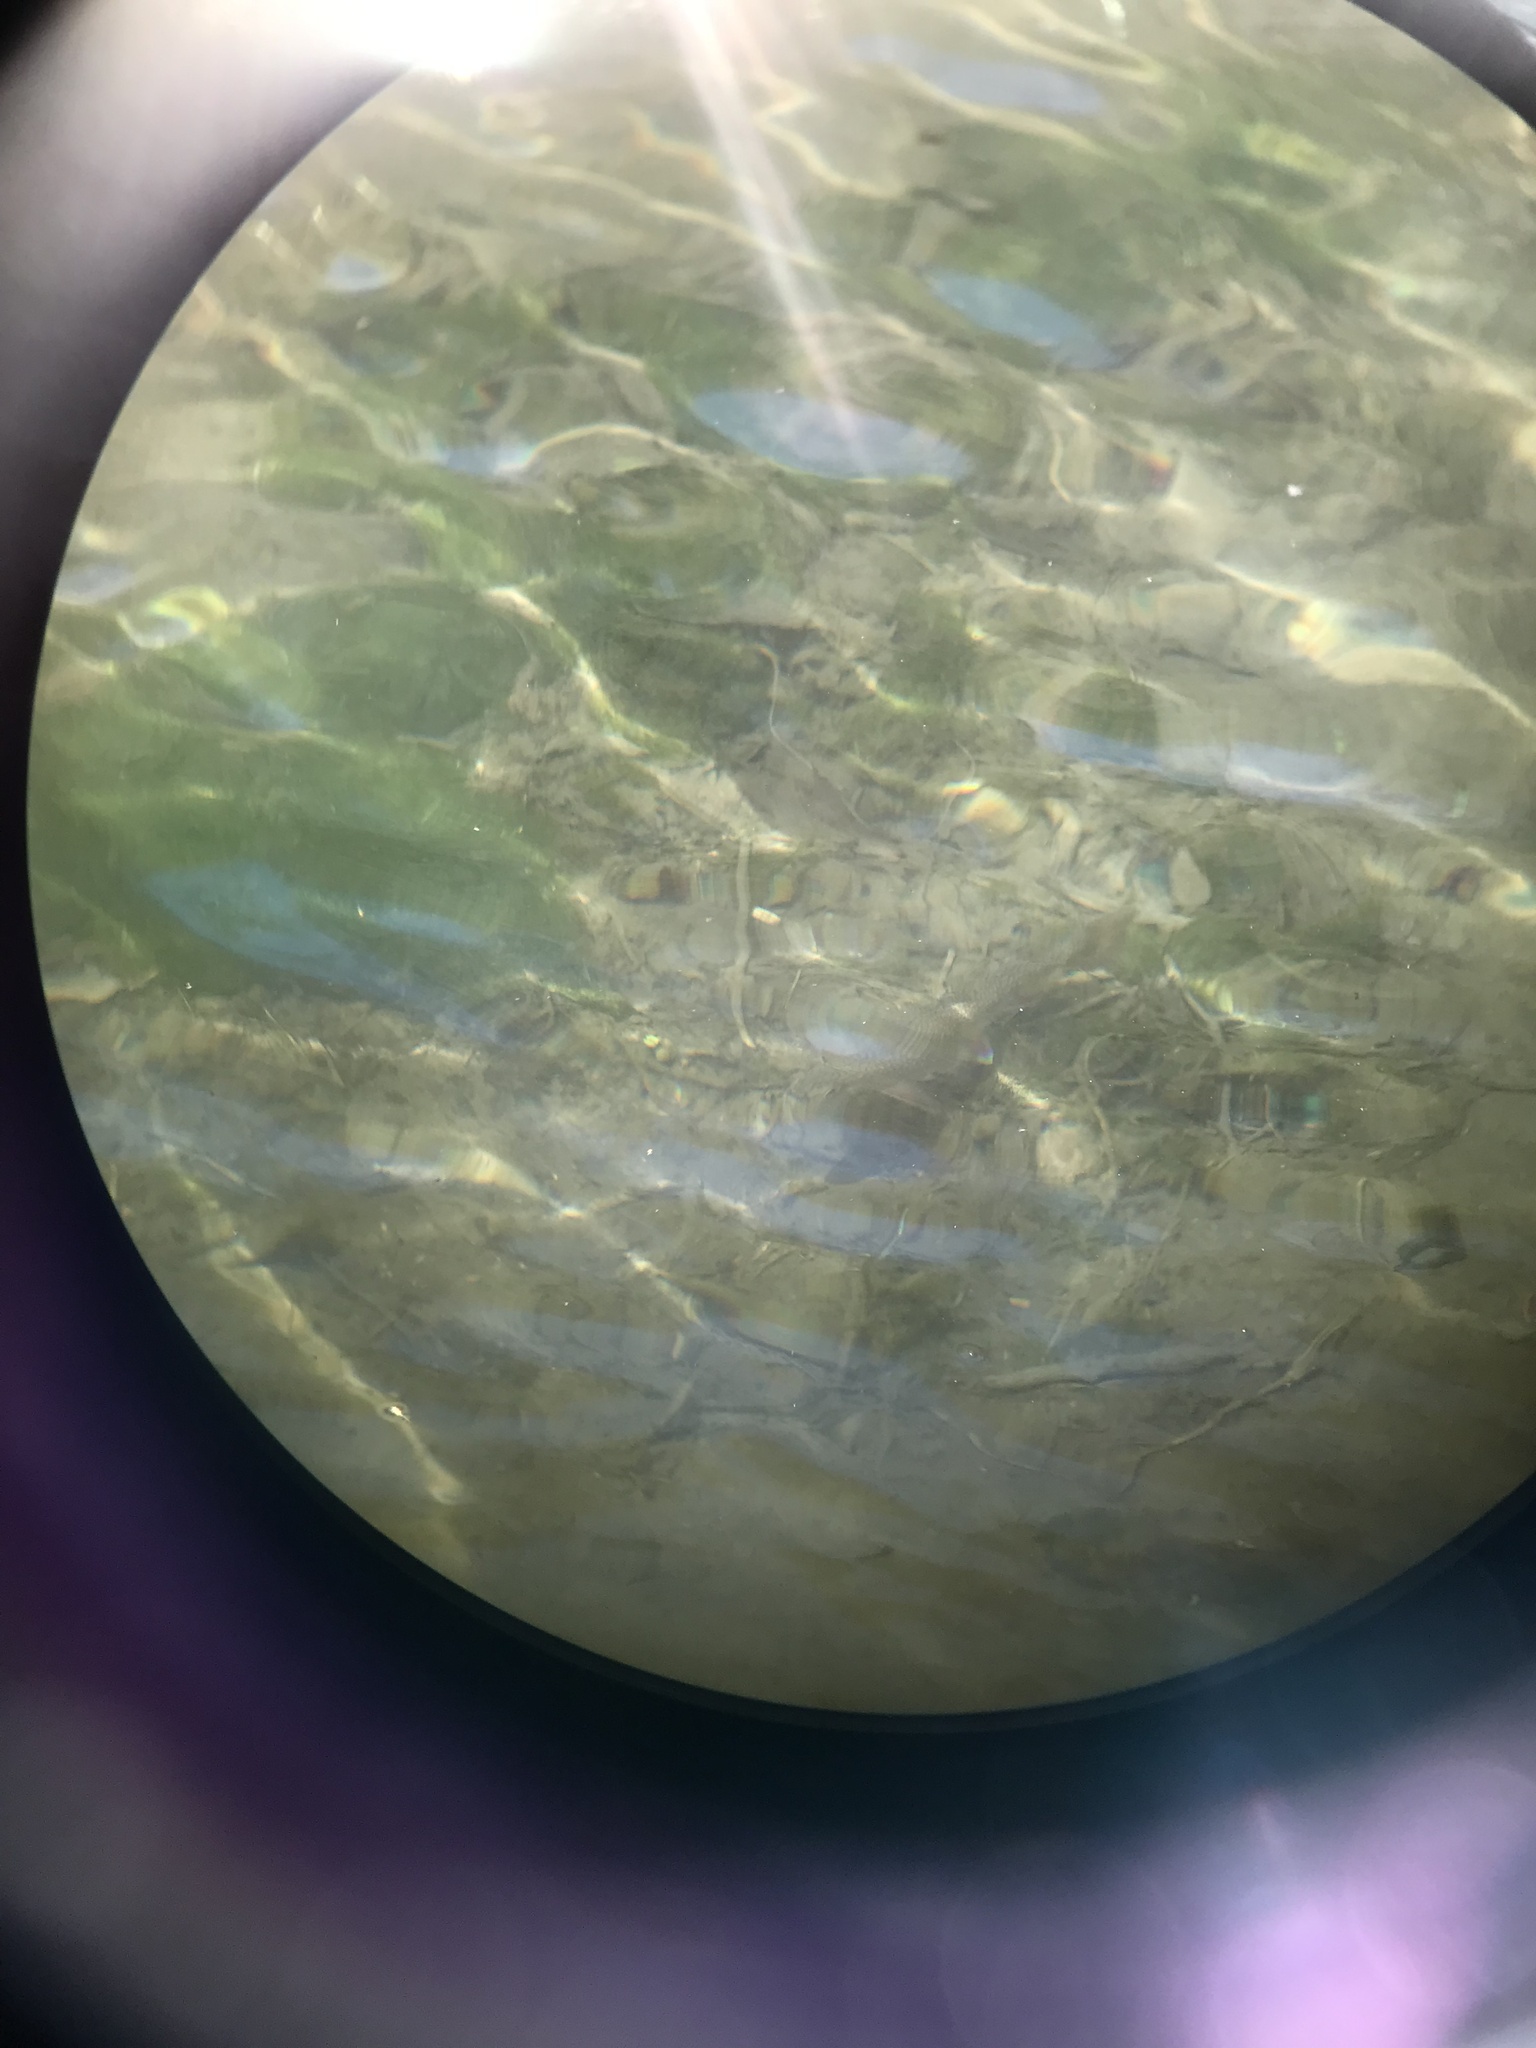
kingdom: Animalia
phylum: Chordata
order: Salmoniformes
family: Salmonidae
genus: Salvelinus
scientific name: Salvelinus fontinalis
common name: Brook trout
